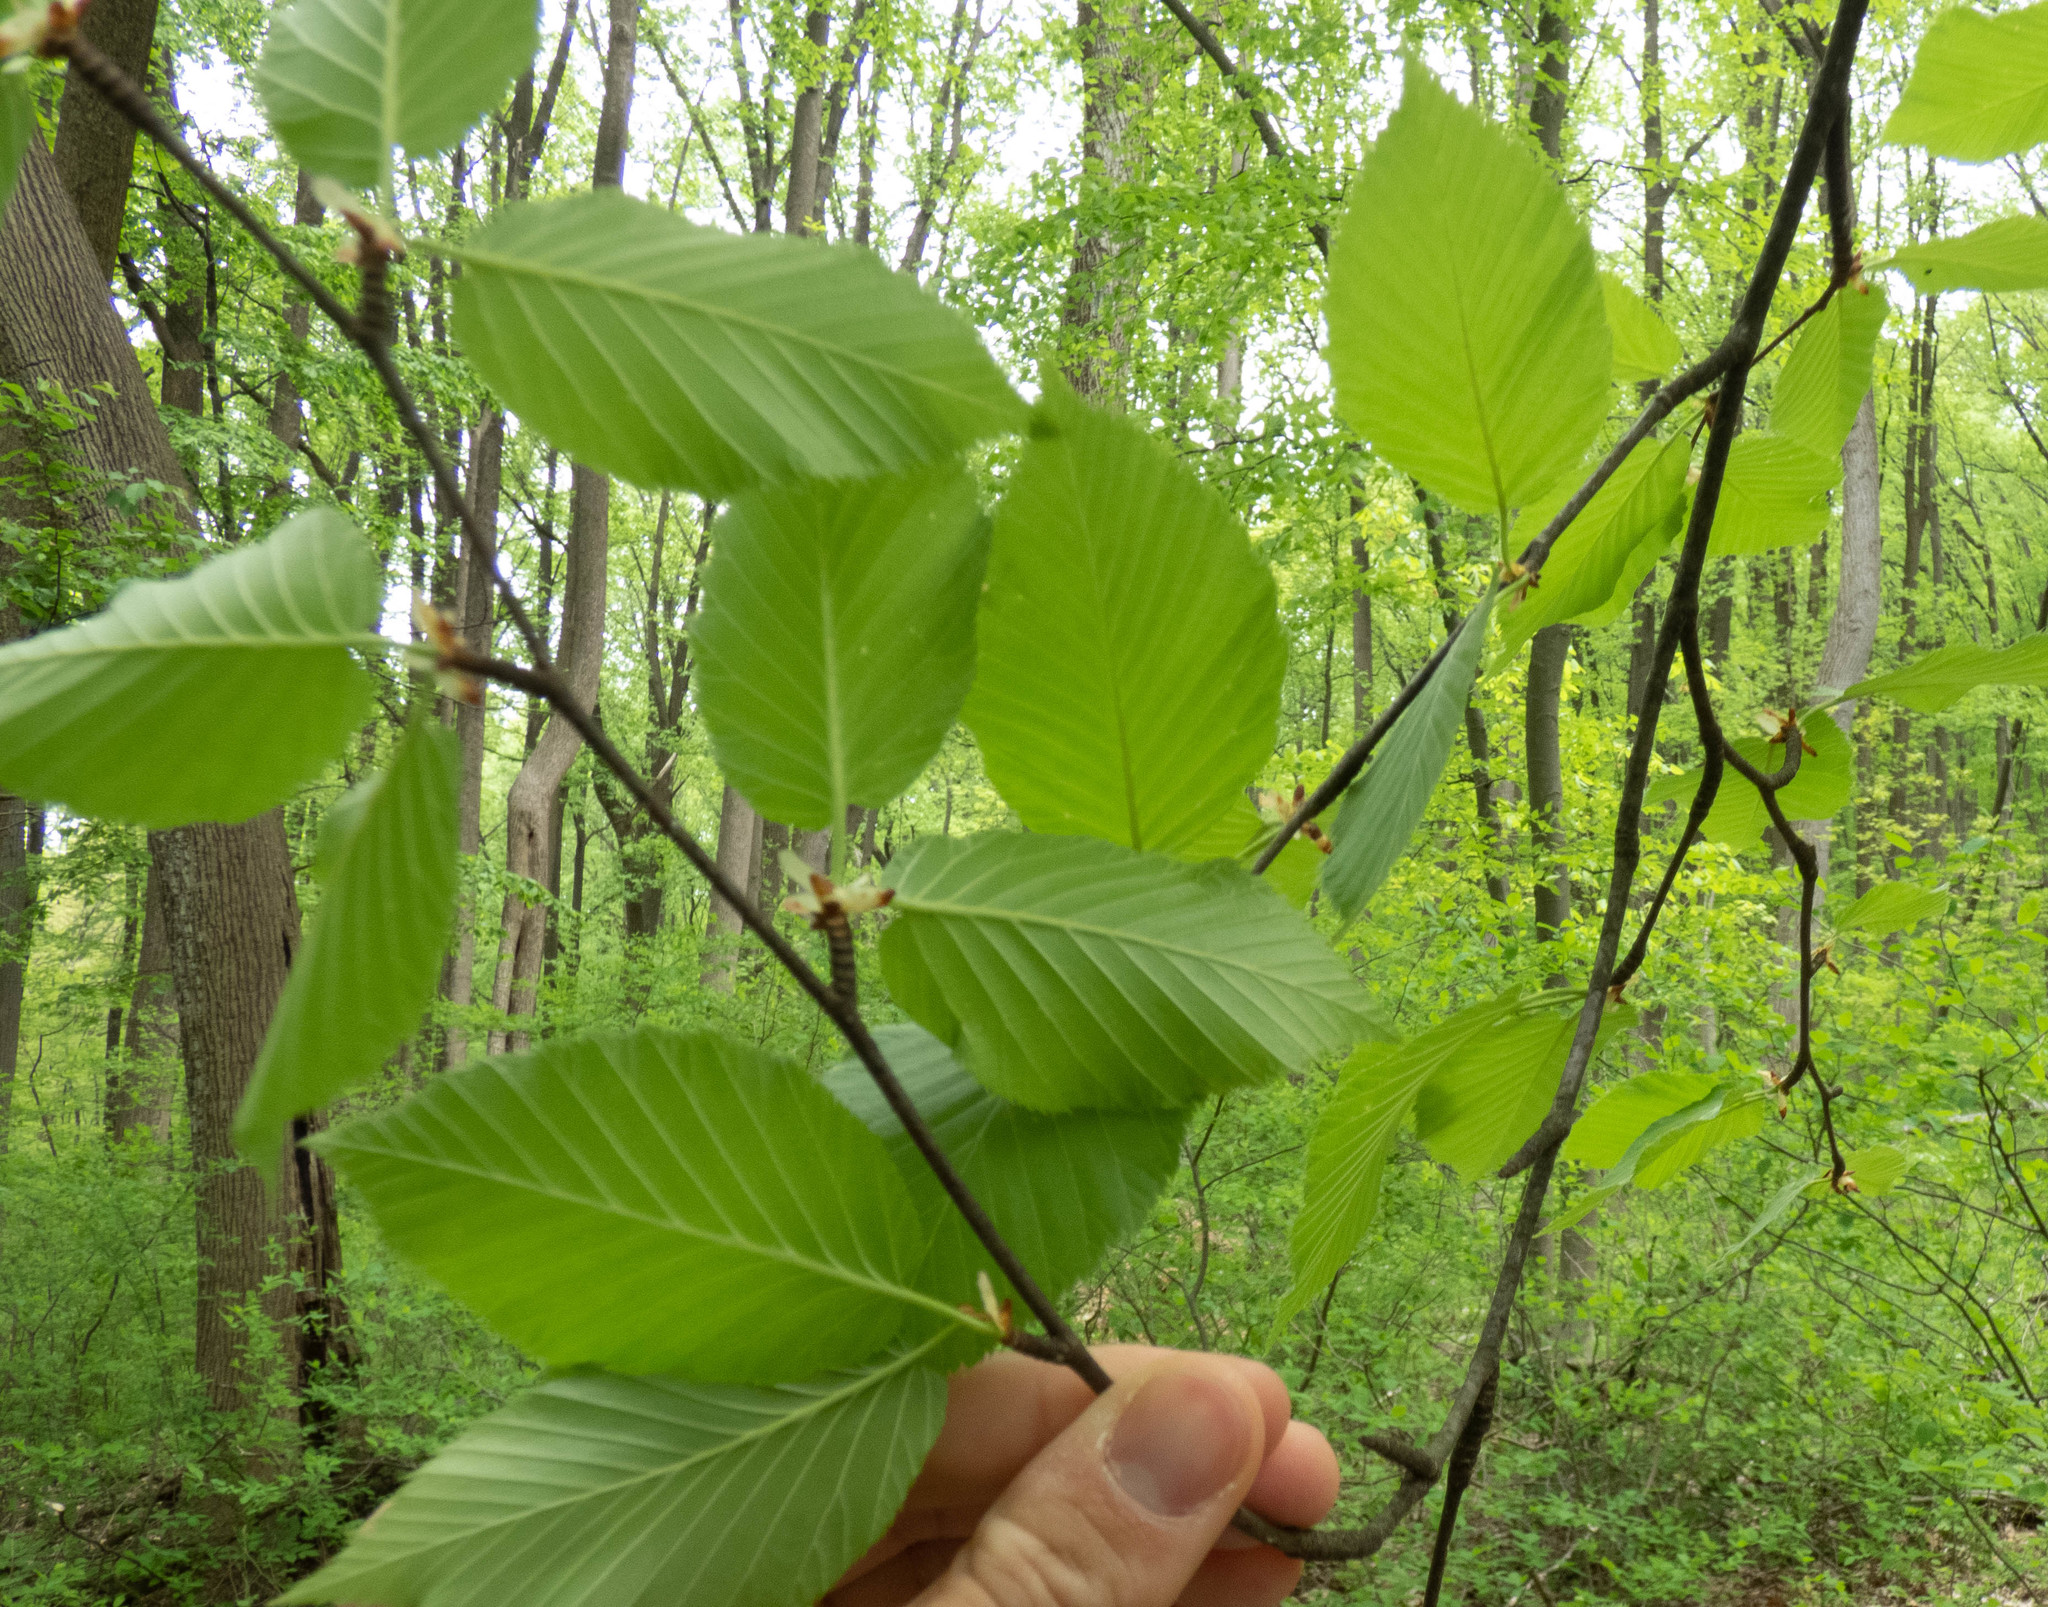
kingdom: Plantae
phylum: Tracheophyta
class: Magnoliopsida
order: Fagales
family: Betulaceae
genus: Betula
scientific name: Betula lenta
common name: Black birch
